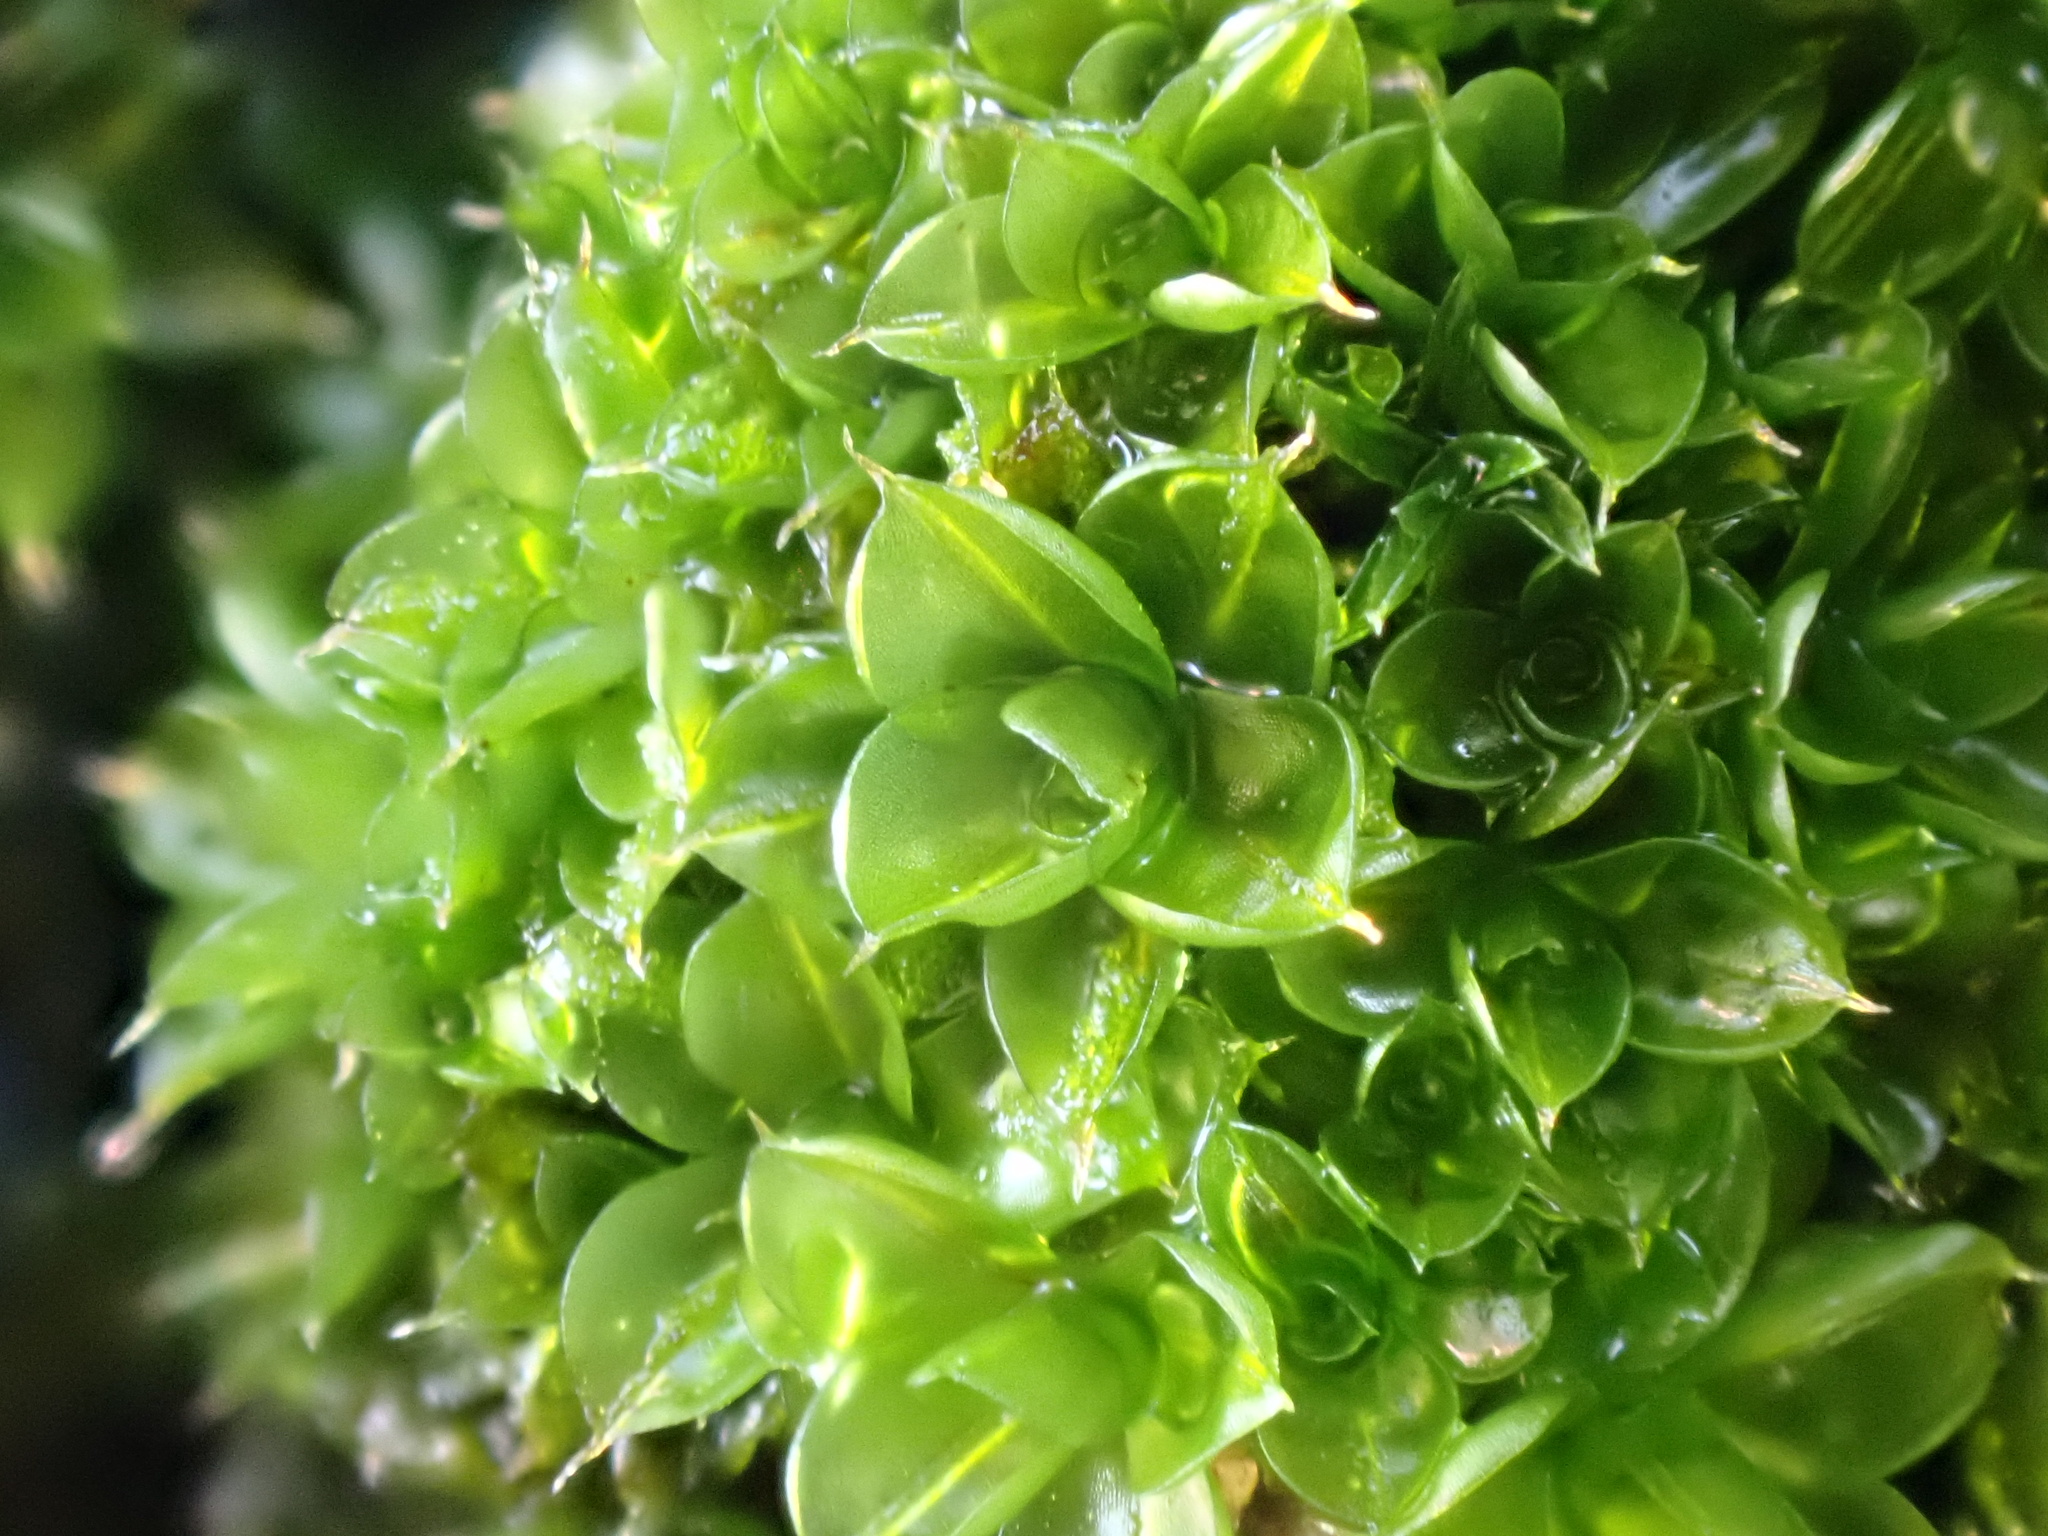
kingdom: Plantae
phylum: Bryophyta
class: Bryopsida
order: Pottiales
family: Pottiaceae
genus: Syntrichia
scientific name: Syntrichia papillosa
